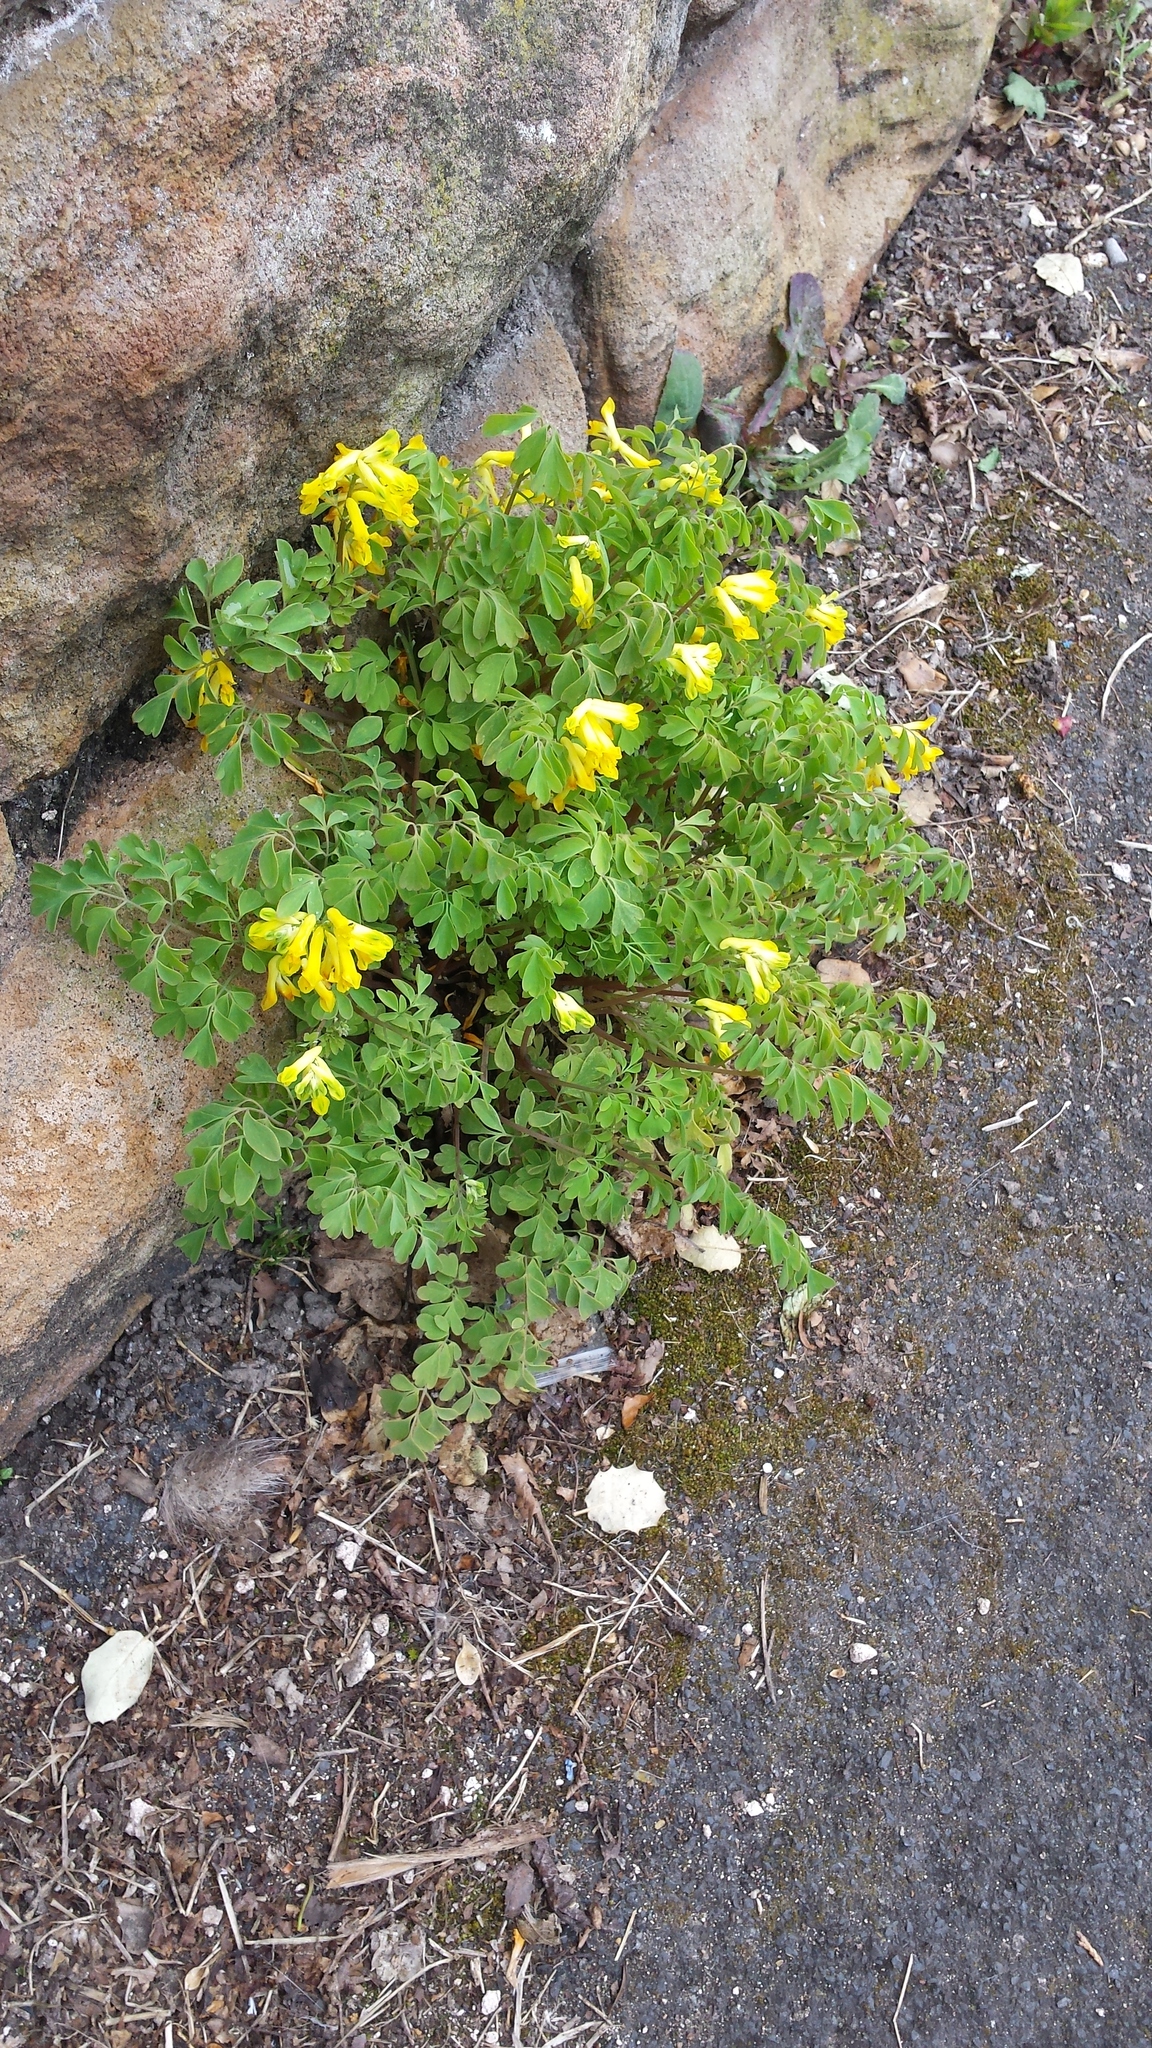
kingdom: Plantae
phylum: Tracheophyta
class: Magnoliopsida
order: Ranunculales
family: Papaveraceae
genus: Pseudofumaria
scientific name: Pseudofumaria lutea
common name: Yellow corydalis
